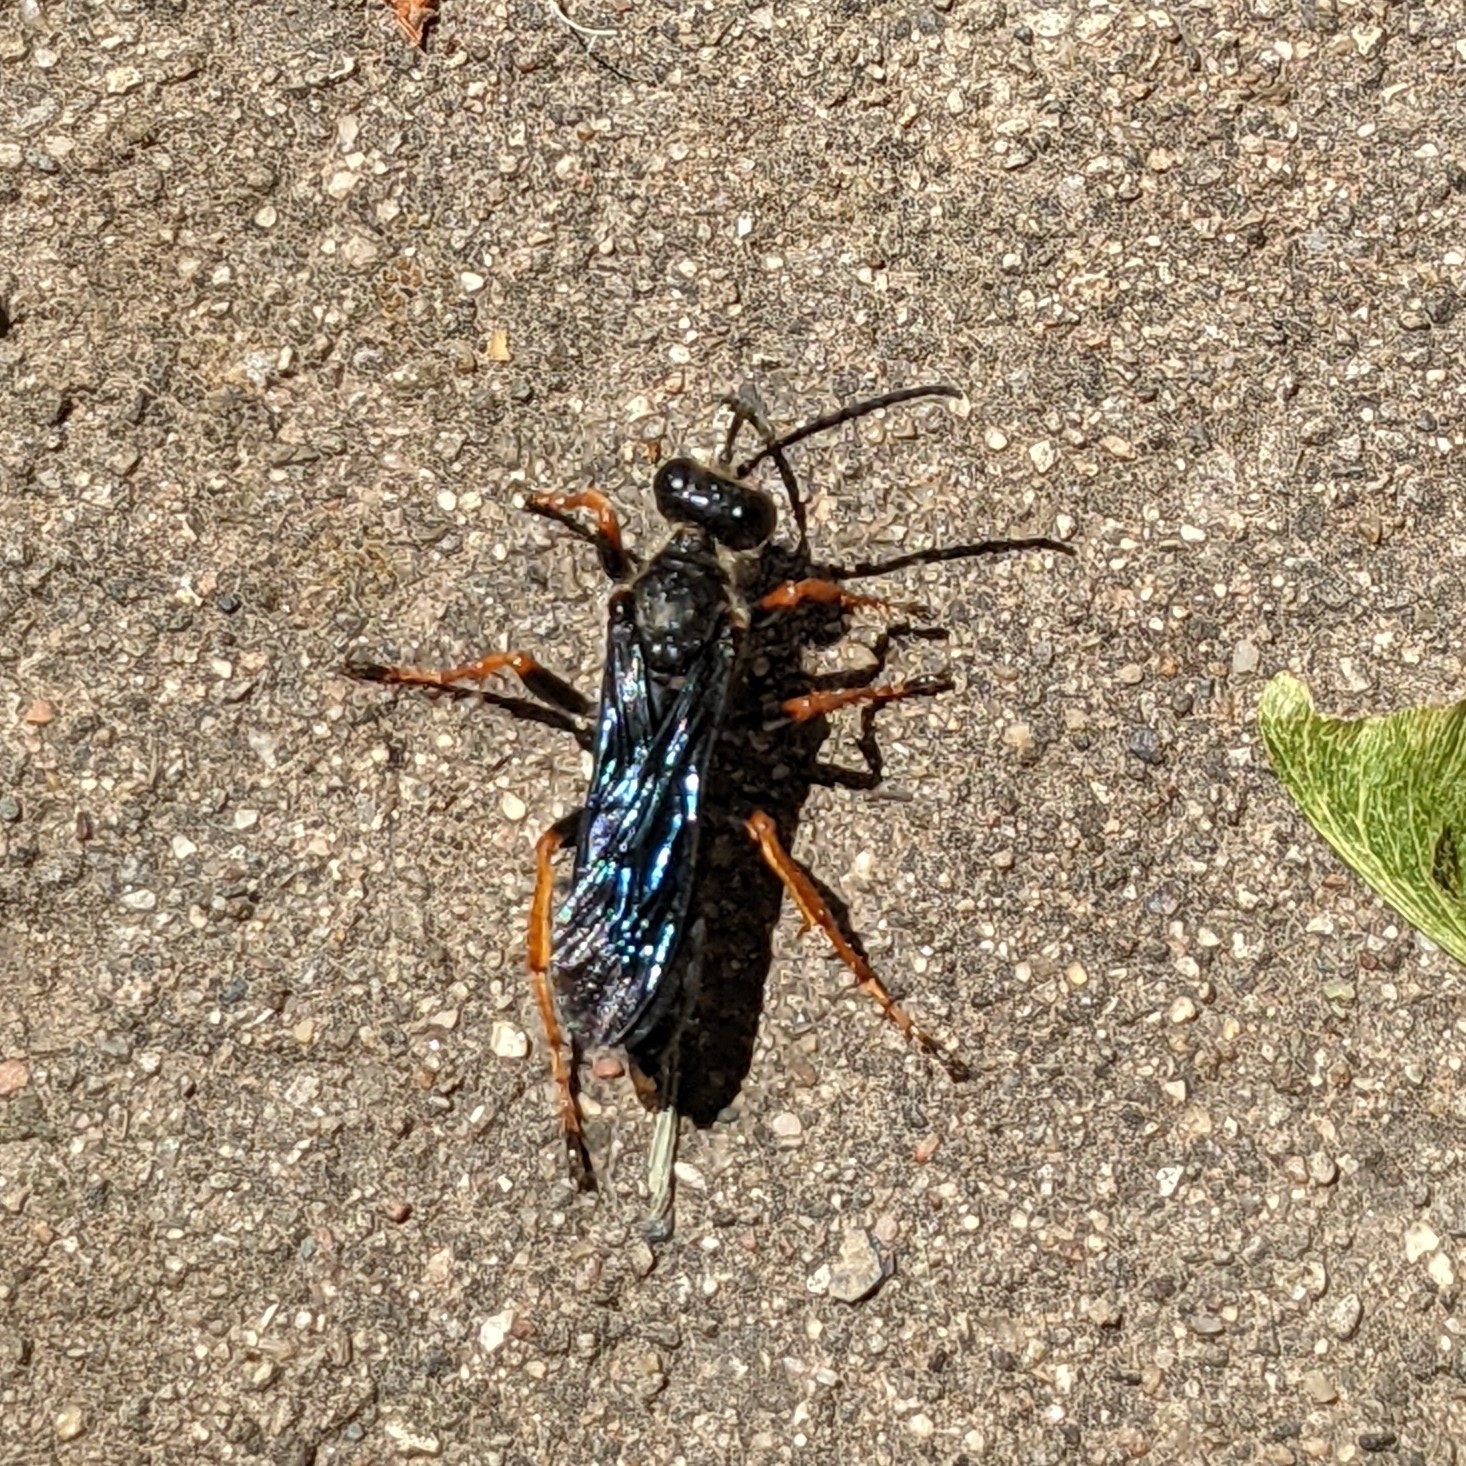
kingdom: Animalia
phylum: Arthropoda
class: Insecta
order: Hymenoptera
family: Sphecidae
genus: Sphex
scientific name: Sphex nudus
